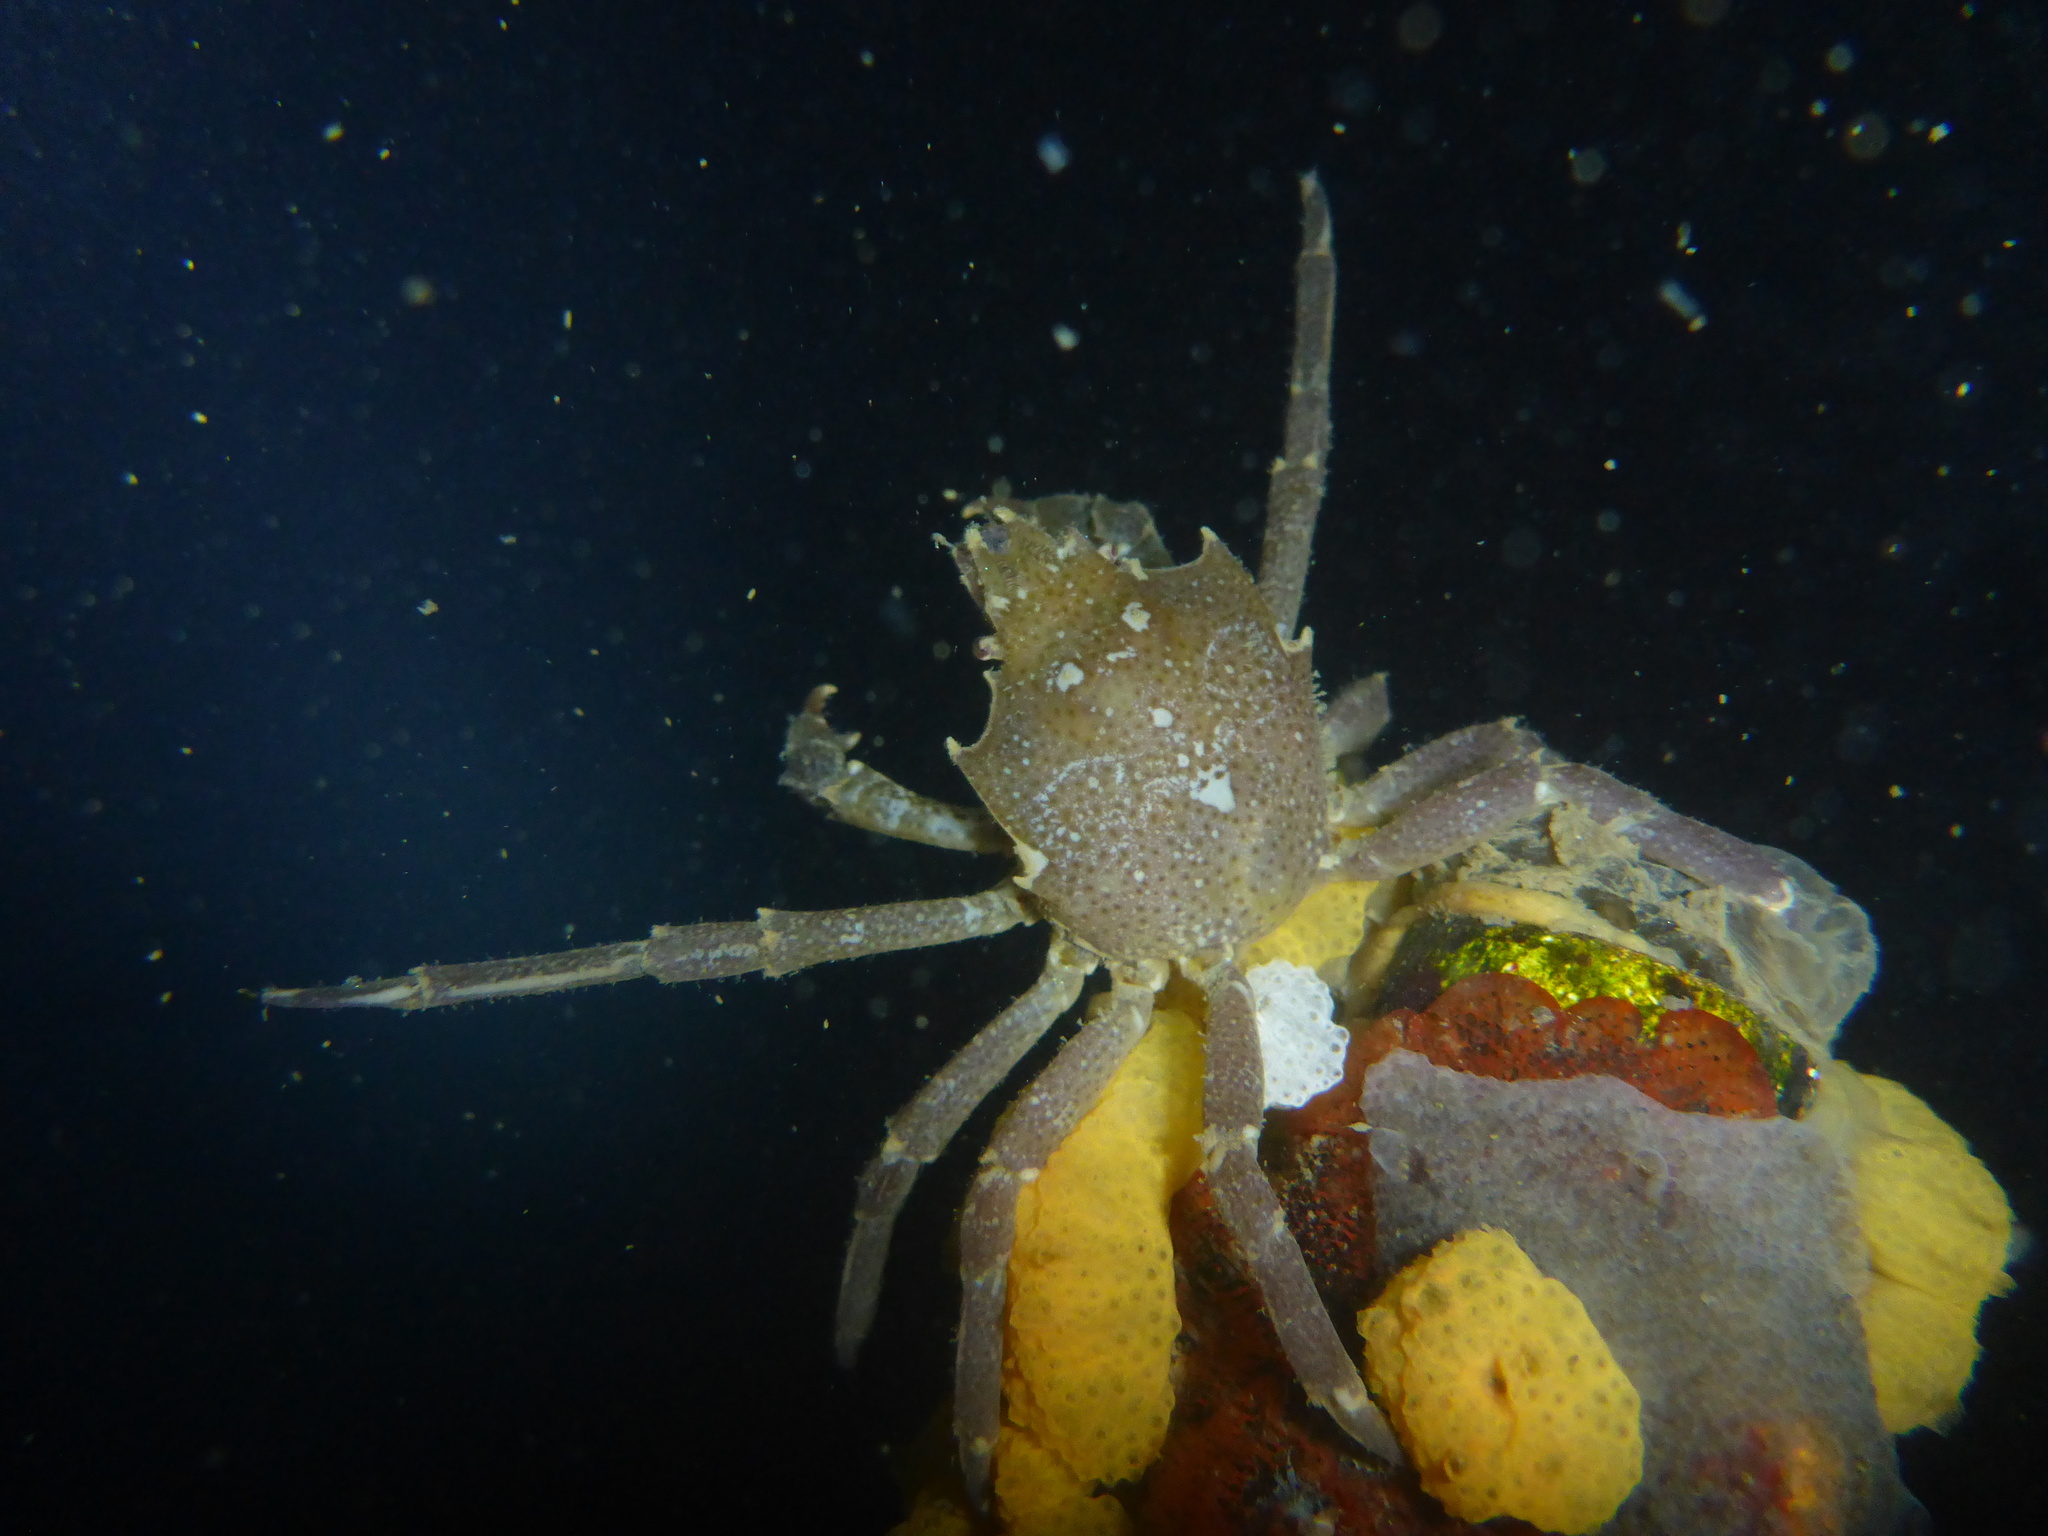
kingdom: Animalia
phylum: Arthropoda
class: Malacostraca
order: Decapoda
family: Epialtidae
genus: Pugettia
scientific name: Pugettia producta
